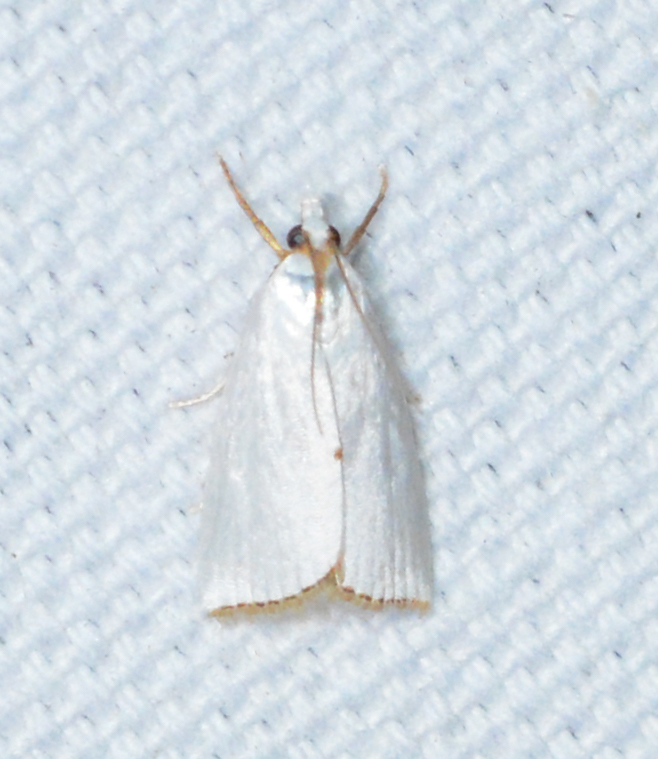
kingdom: Animalia
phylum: Arthropoda
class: Insecta
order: Lepidoptera
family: Crambidae
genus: Argyria
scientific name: Argyria nivalis
